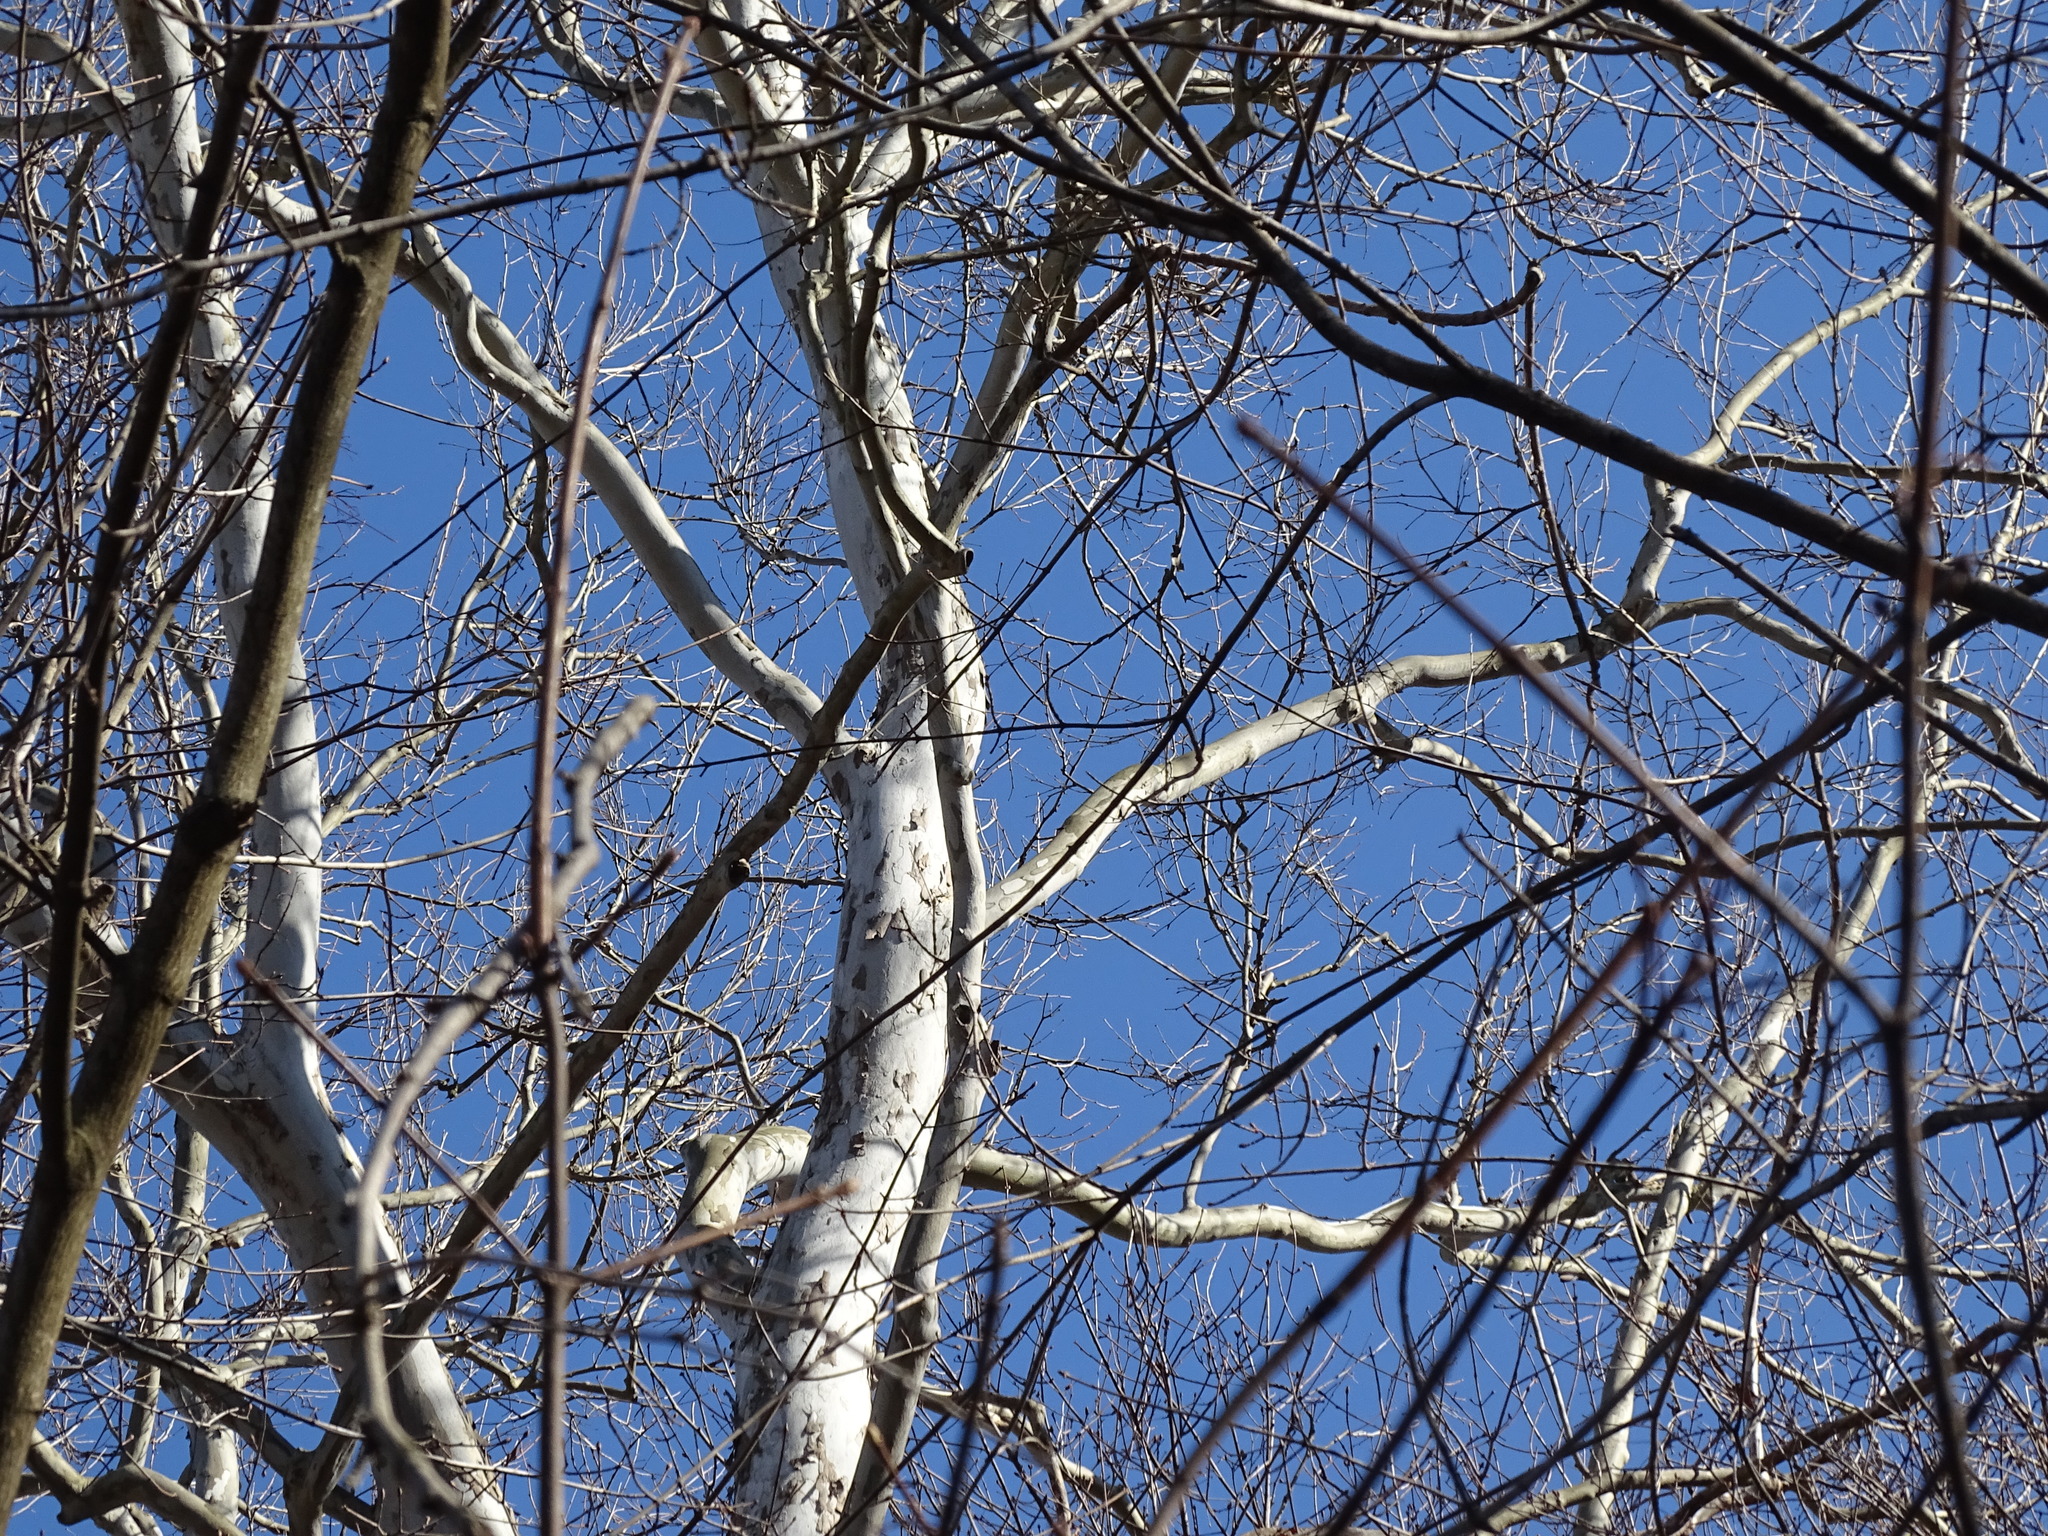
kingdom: Plantae
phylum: Tracheophyta
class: Magnoliopsida
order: Proteales
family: Platanaceae
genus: Platanus
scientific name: Platanus occidentalis
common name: American sycamore
